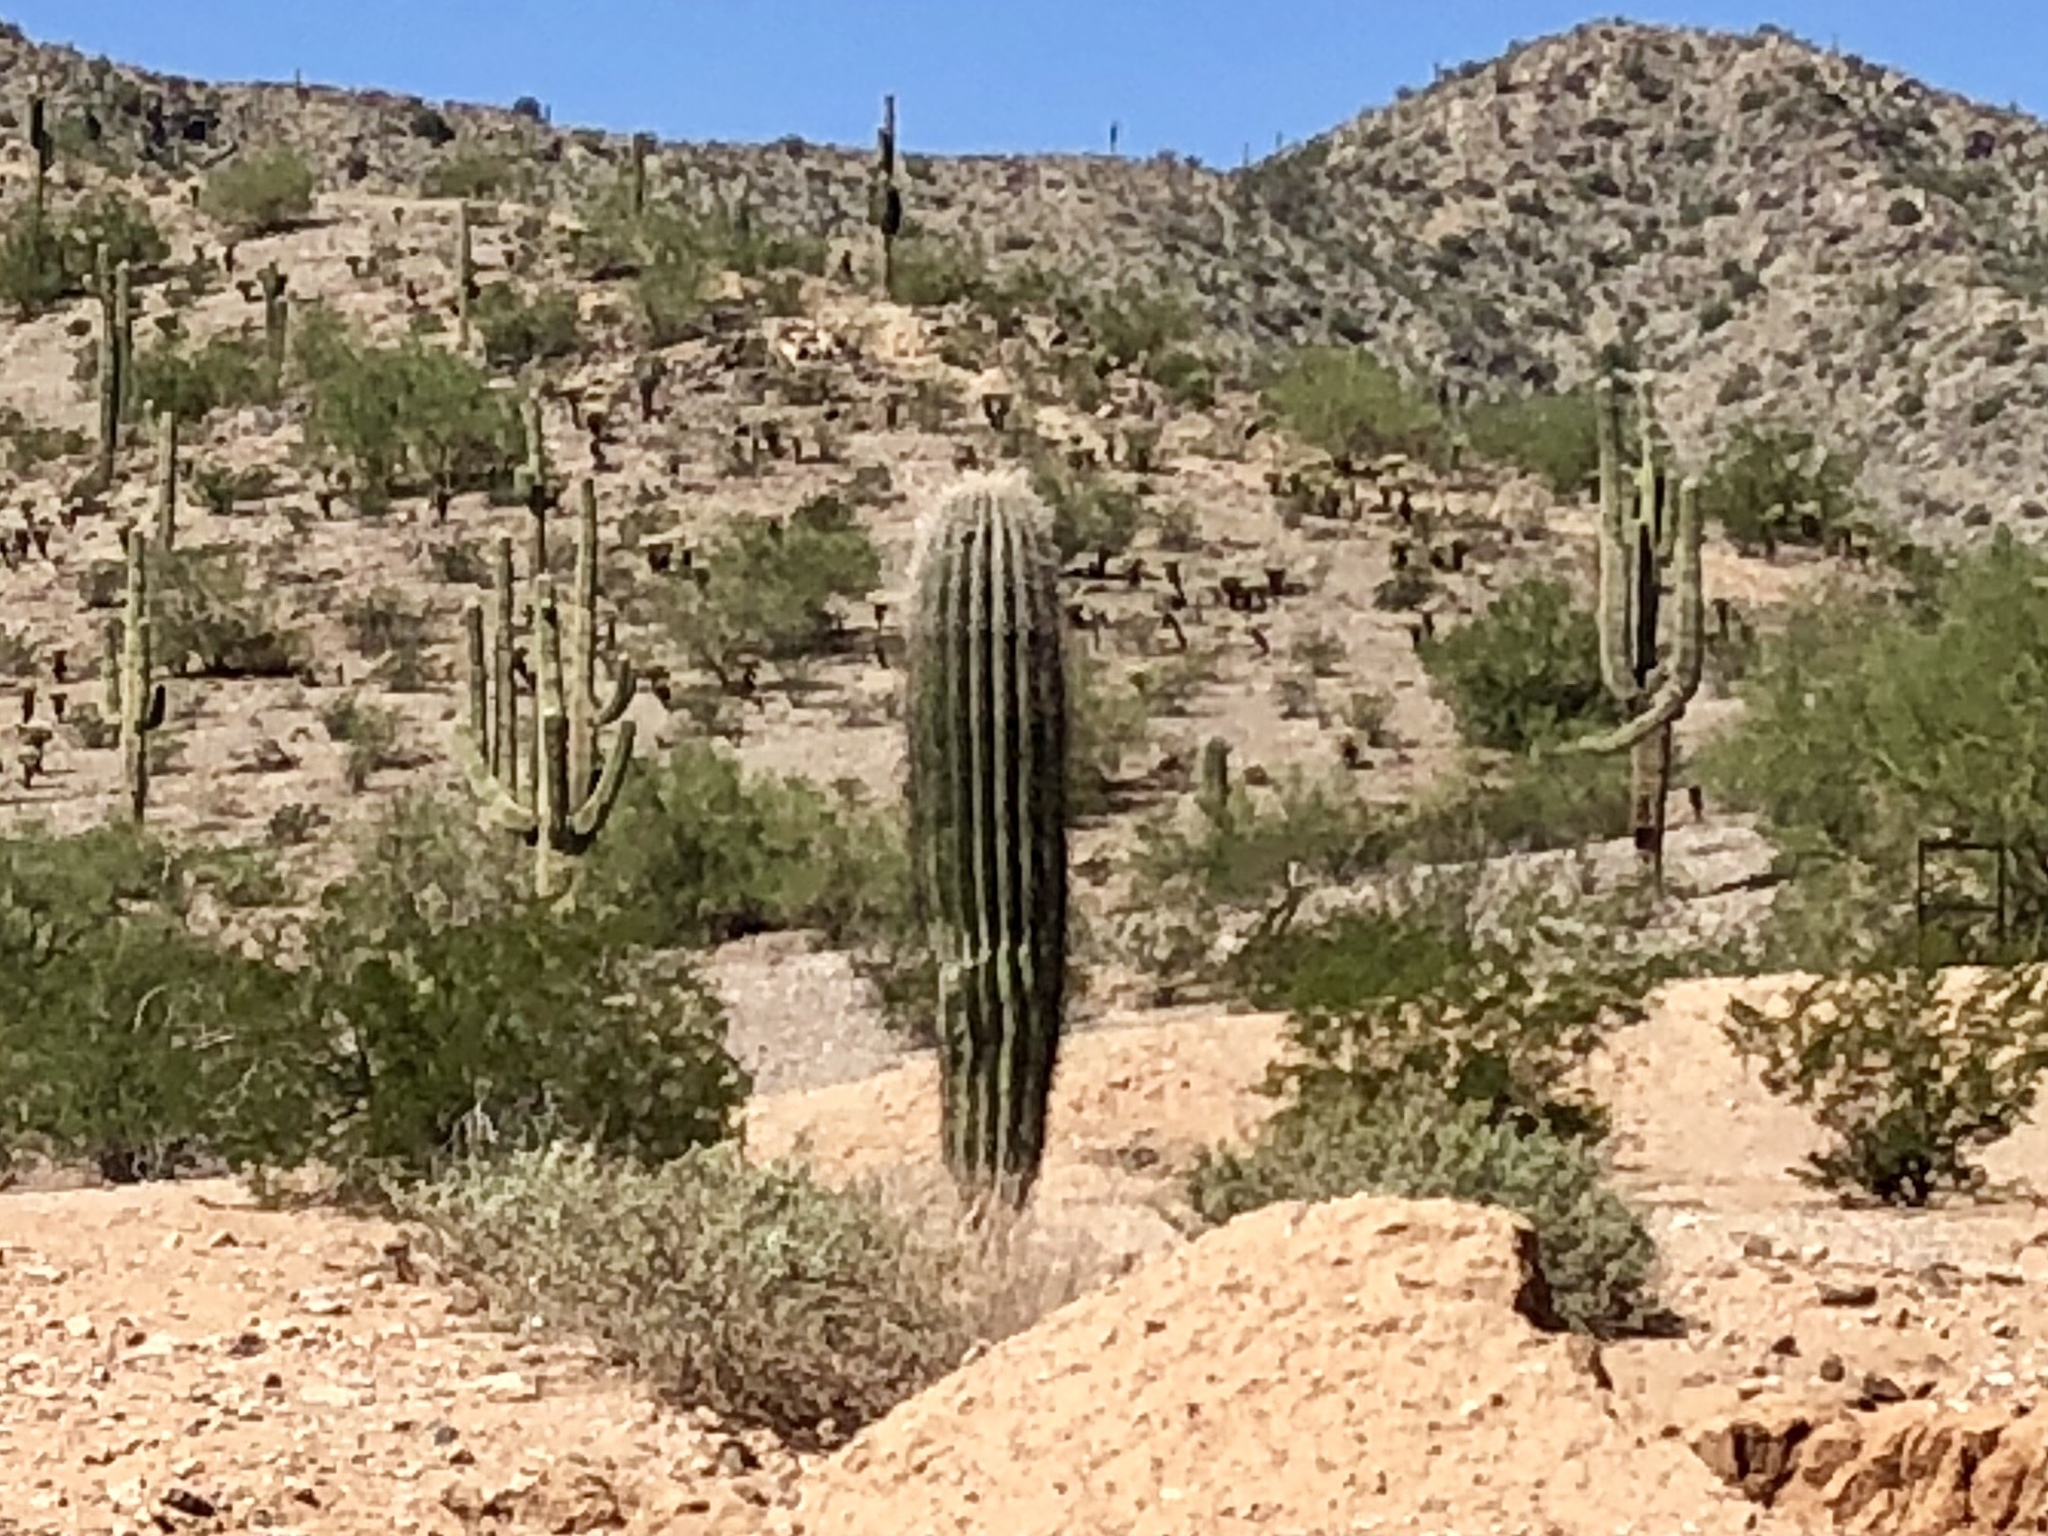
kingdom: Plantae
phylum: Tracheophyta
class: Magnoliopsida
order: Caryophyllales
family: Cactaceae
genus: Carnegiea
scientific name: Carnegiea gigantea
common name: Saguaro
